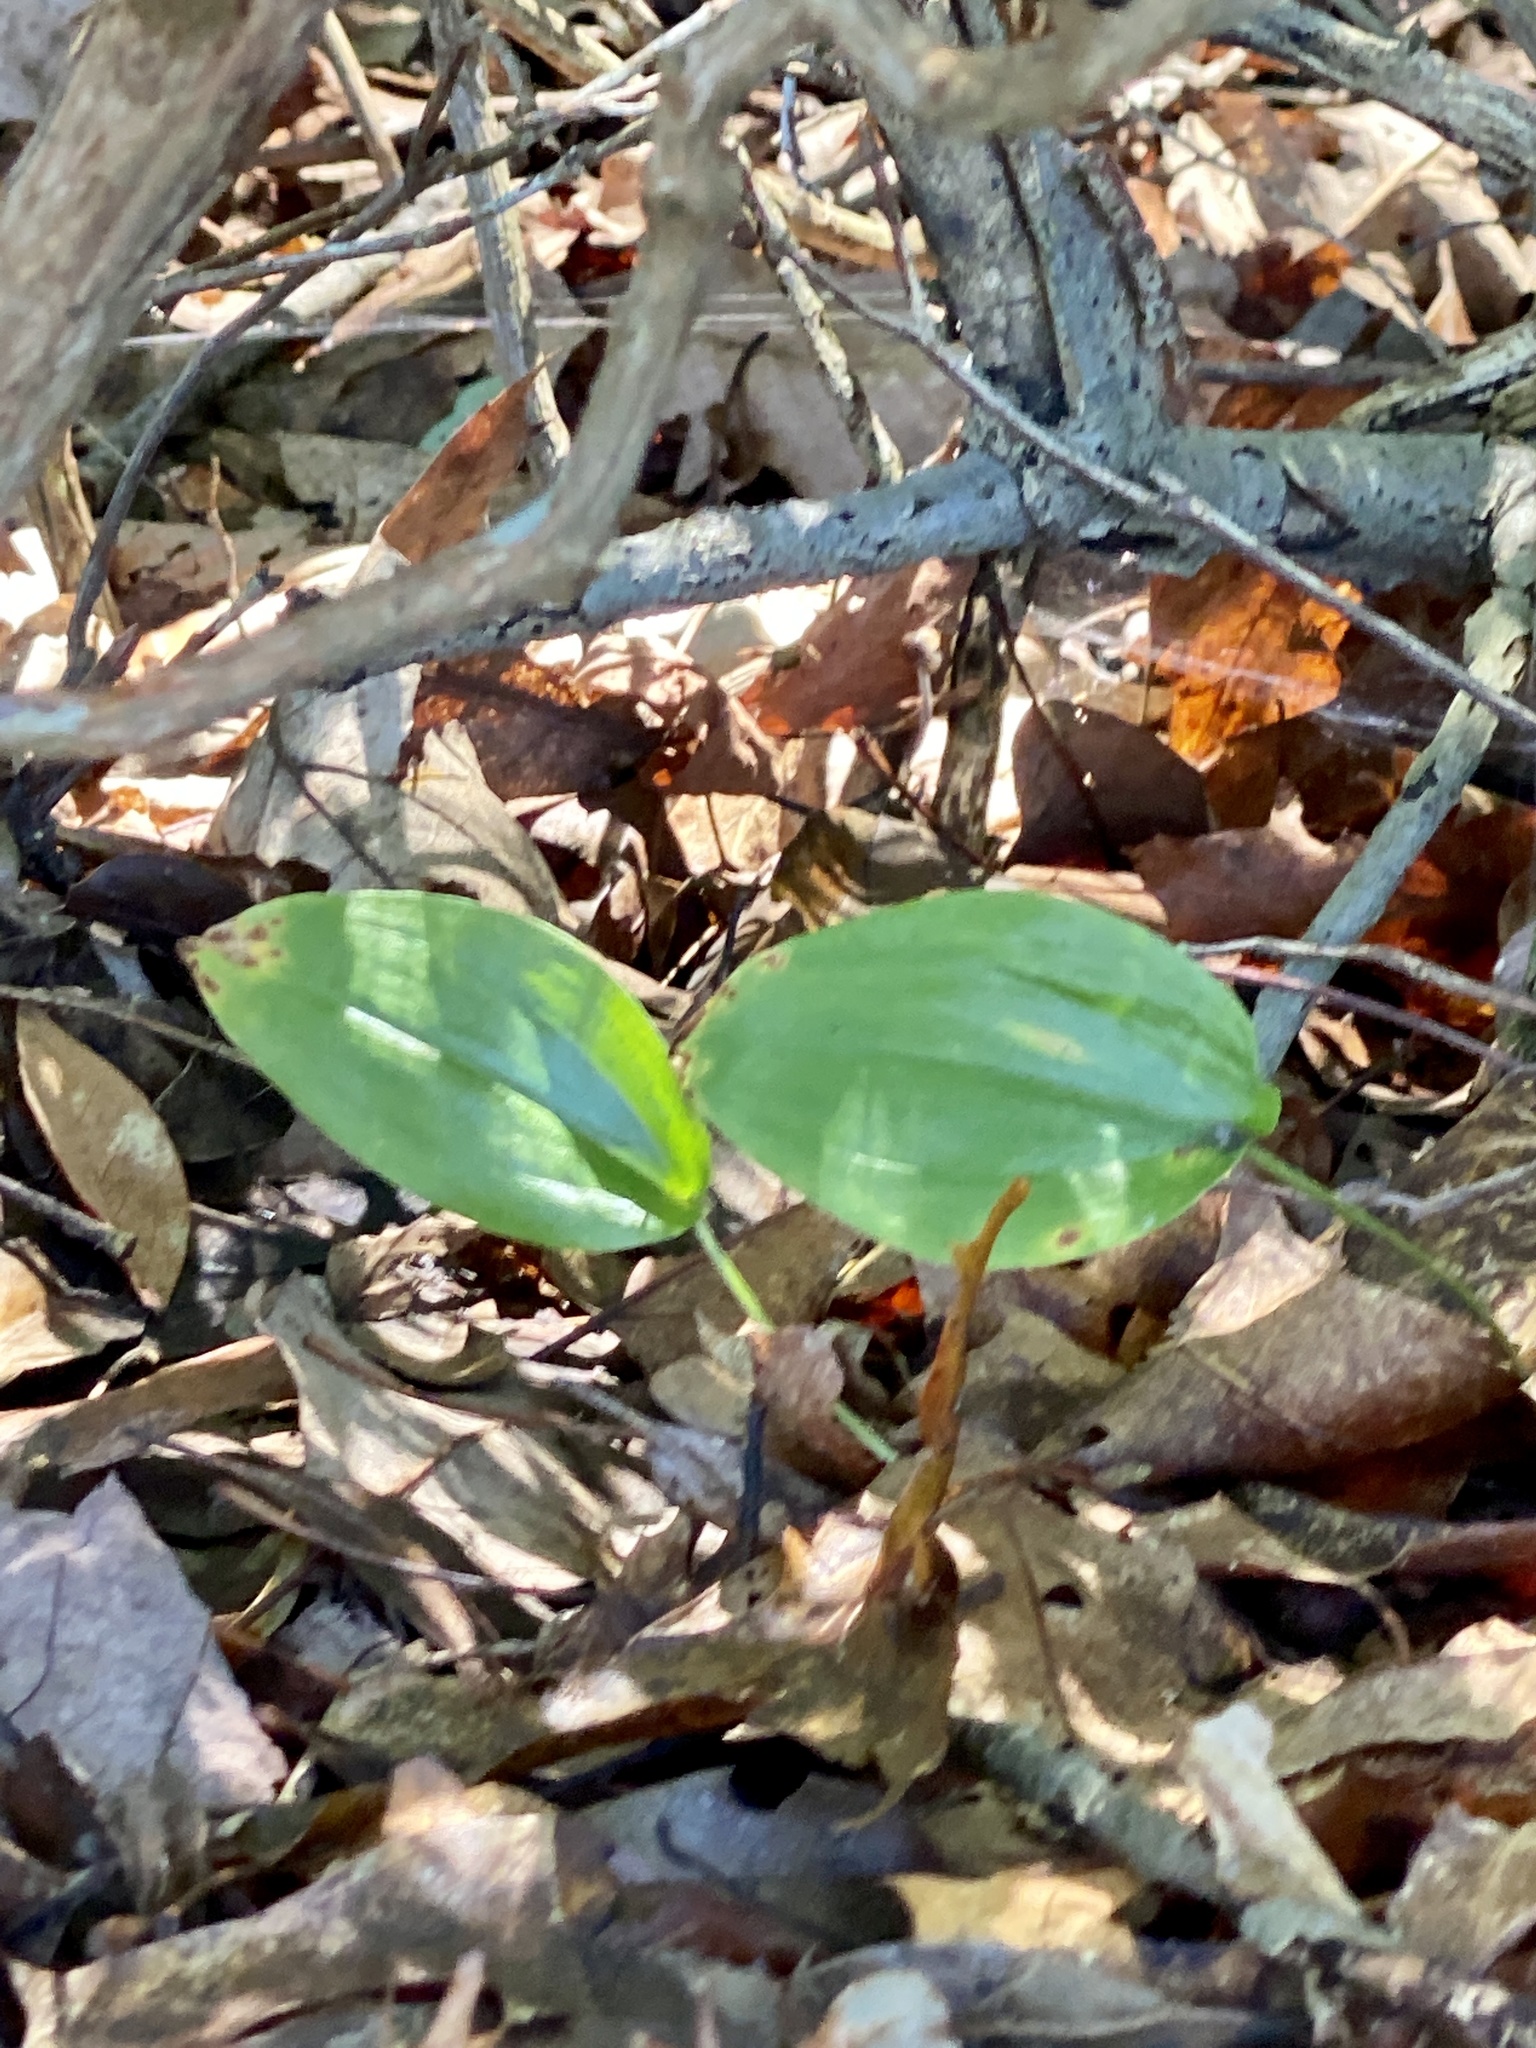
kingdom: Plantae
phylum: Tracheophyta
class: Liliopsida
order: Asparagales
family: Asparagaceae
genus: Maianthemum
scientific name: Maianthemum canadense
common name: False lily-of-the-valley
